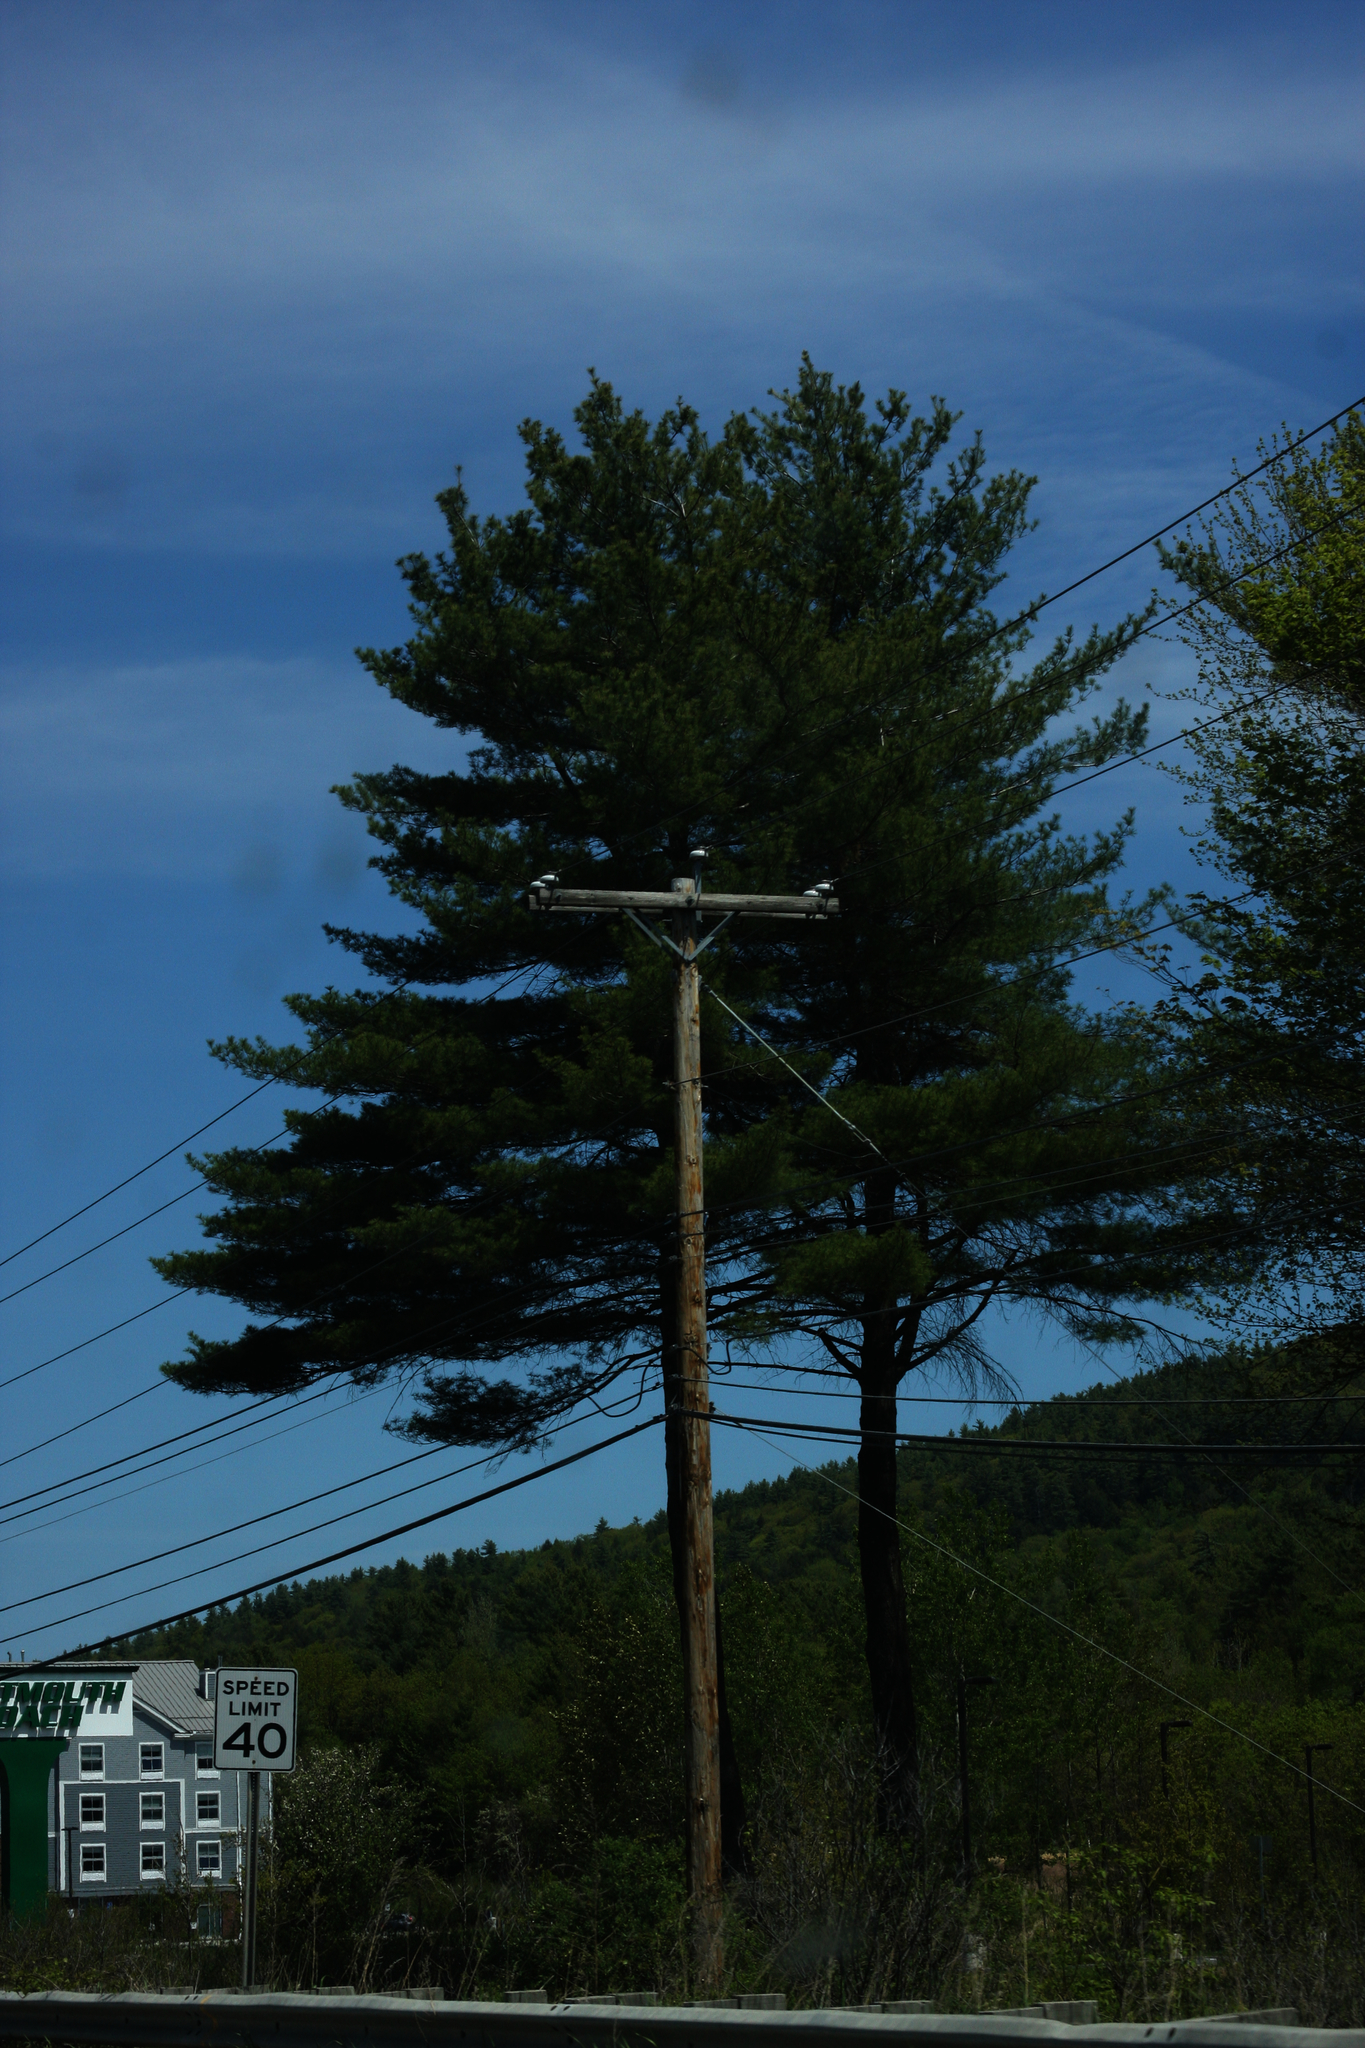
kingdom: Plantae
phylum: Tracheophyta
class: Pinopsida
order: Pinales
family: Pinaceae
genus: Pinus
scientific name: Pinus strobus
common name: Weymouth pine
